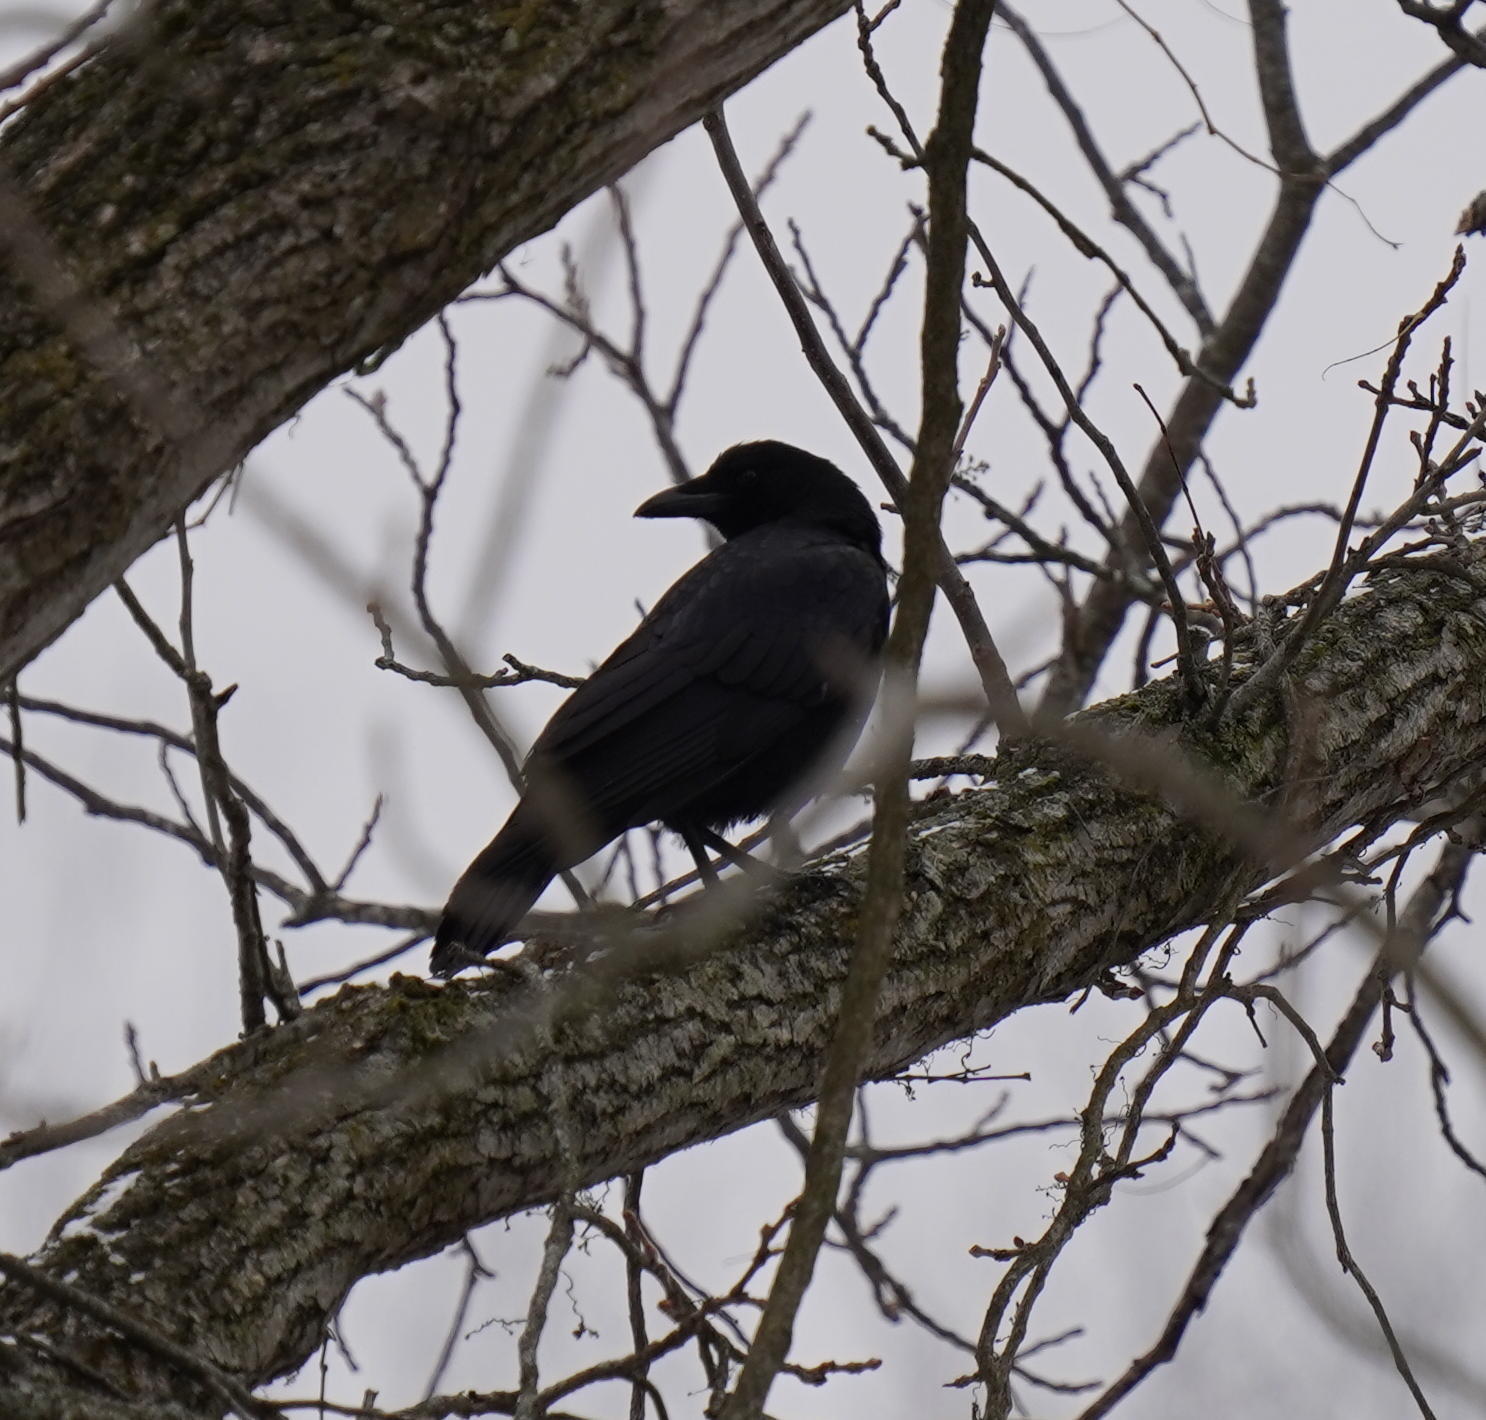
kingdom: Animalia
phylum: Chordata
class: Aves
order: Passeriformes
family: Corvidae
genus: Corvus
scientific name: Corvus brachyrhynchos
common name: American crow
